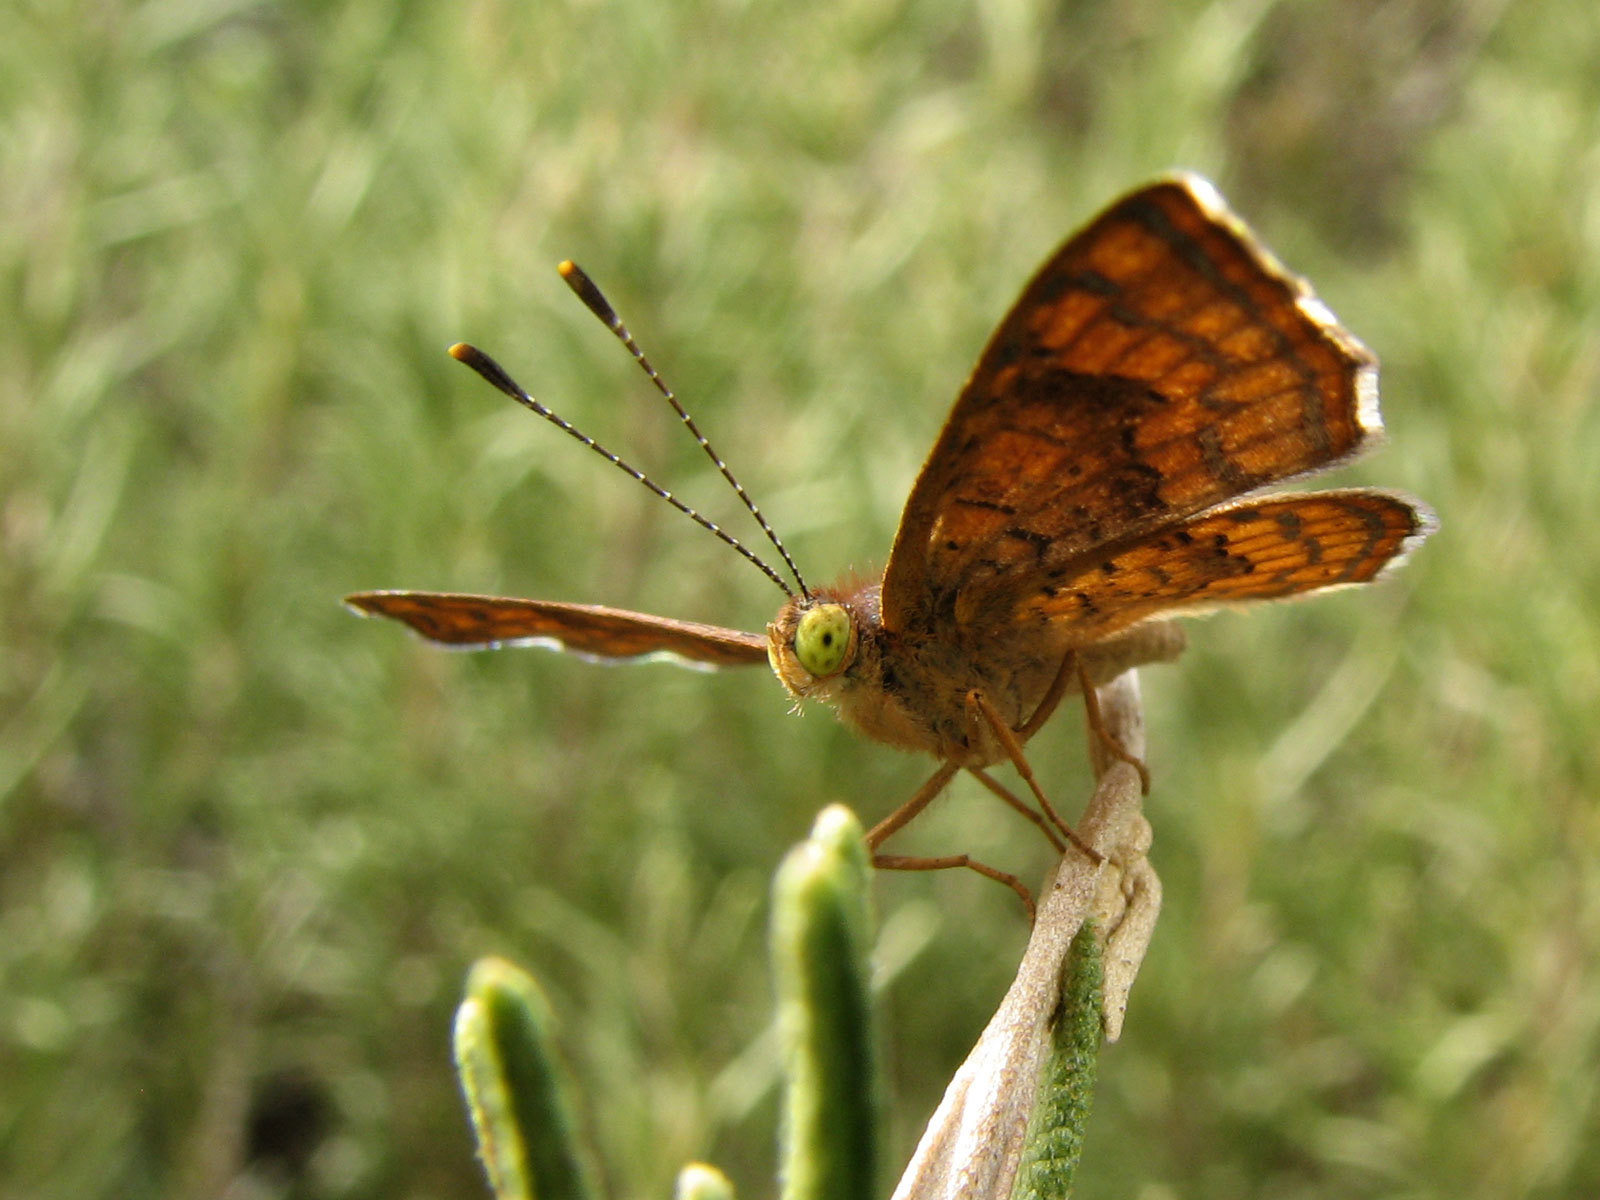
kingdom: Animalia
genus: Calephelis
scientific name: Calephelis nemesis
